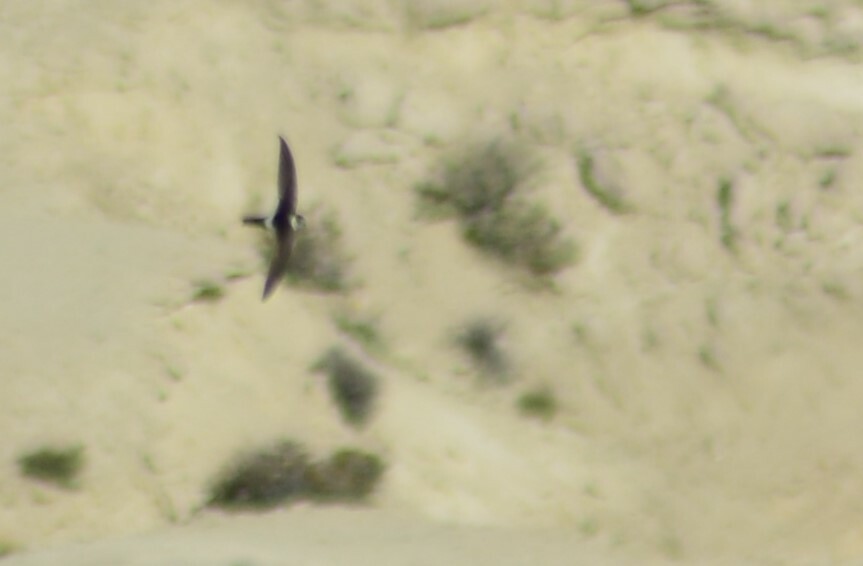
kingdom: Animalia
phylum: Chordata
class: Aves
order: Apodiformes
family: Apodidae
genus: Aeronautes
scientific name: Aeronautes andecolus
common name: Andean swift
